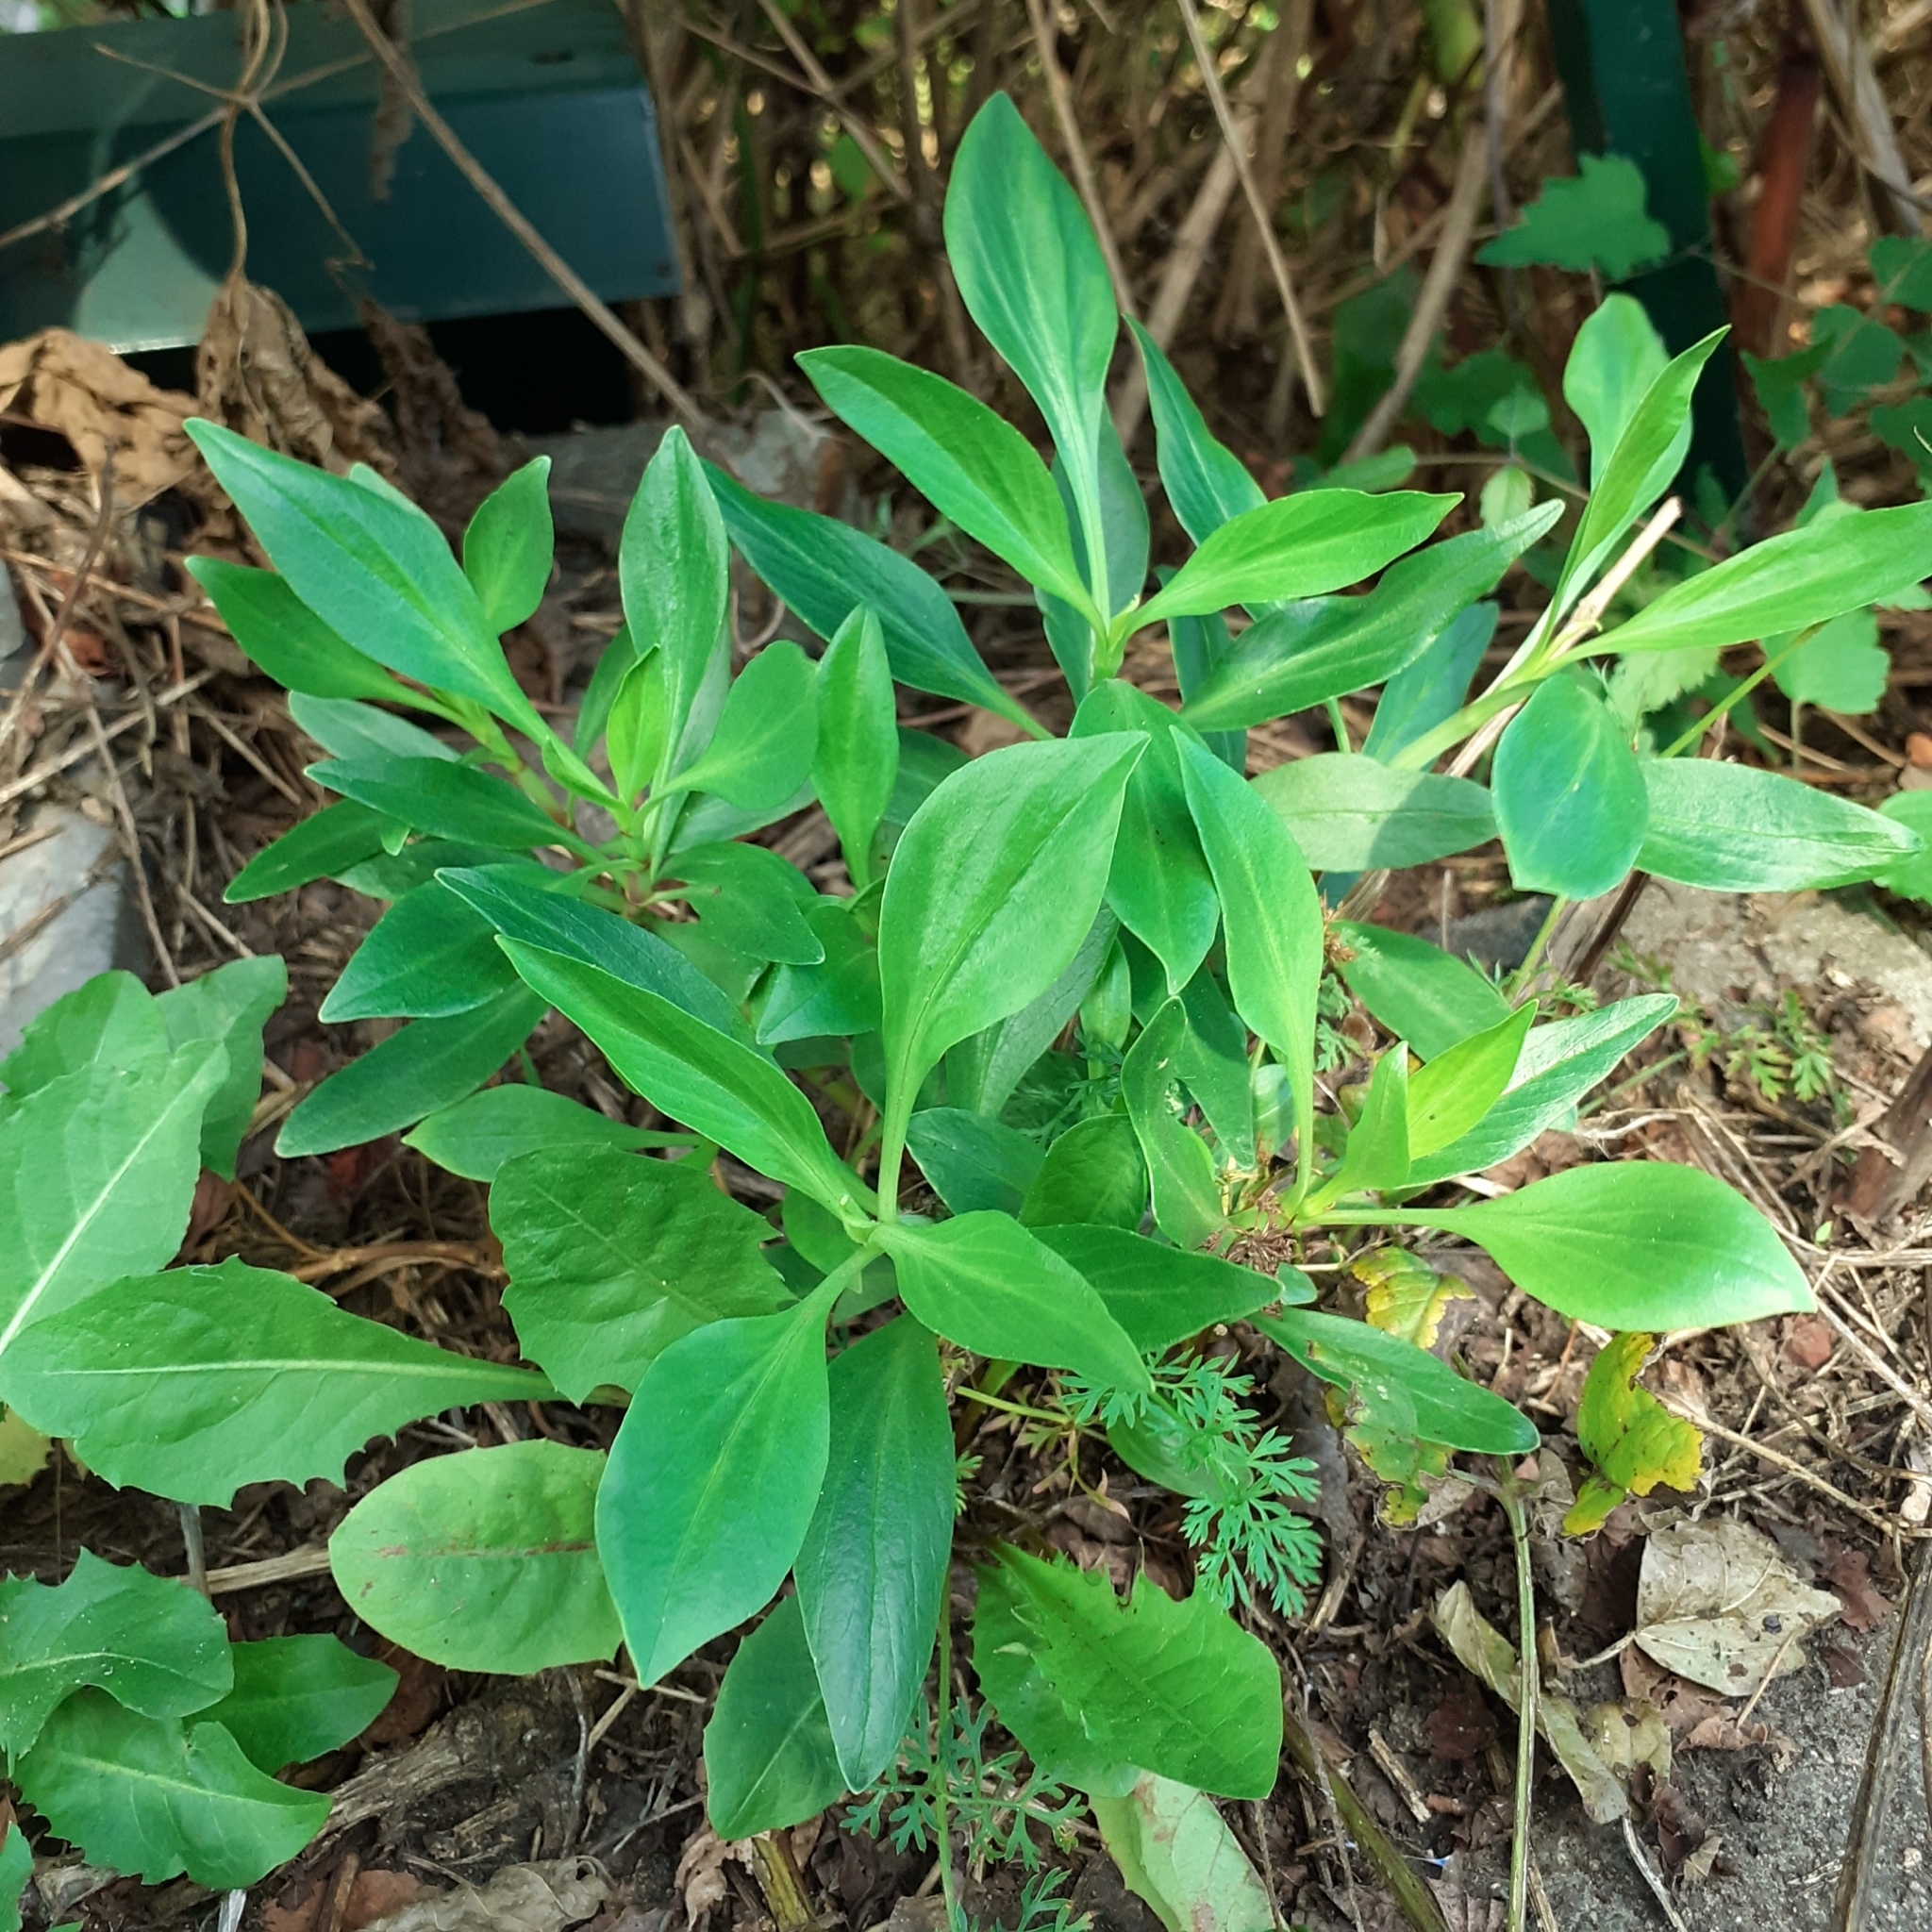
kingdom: Plantae
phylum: Tracheophyta
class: Magnoliopsida
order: Dipsacales
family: Caprifoliaceae
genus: Centranthus
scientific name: Centranthus ruber
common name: Red valerian
